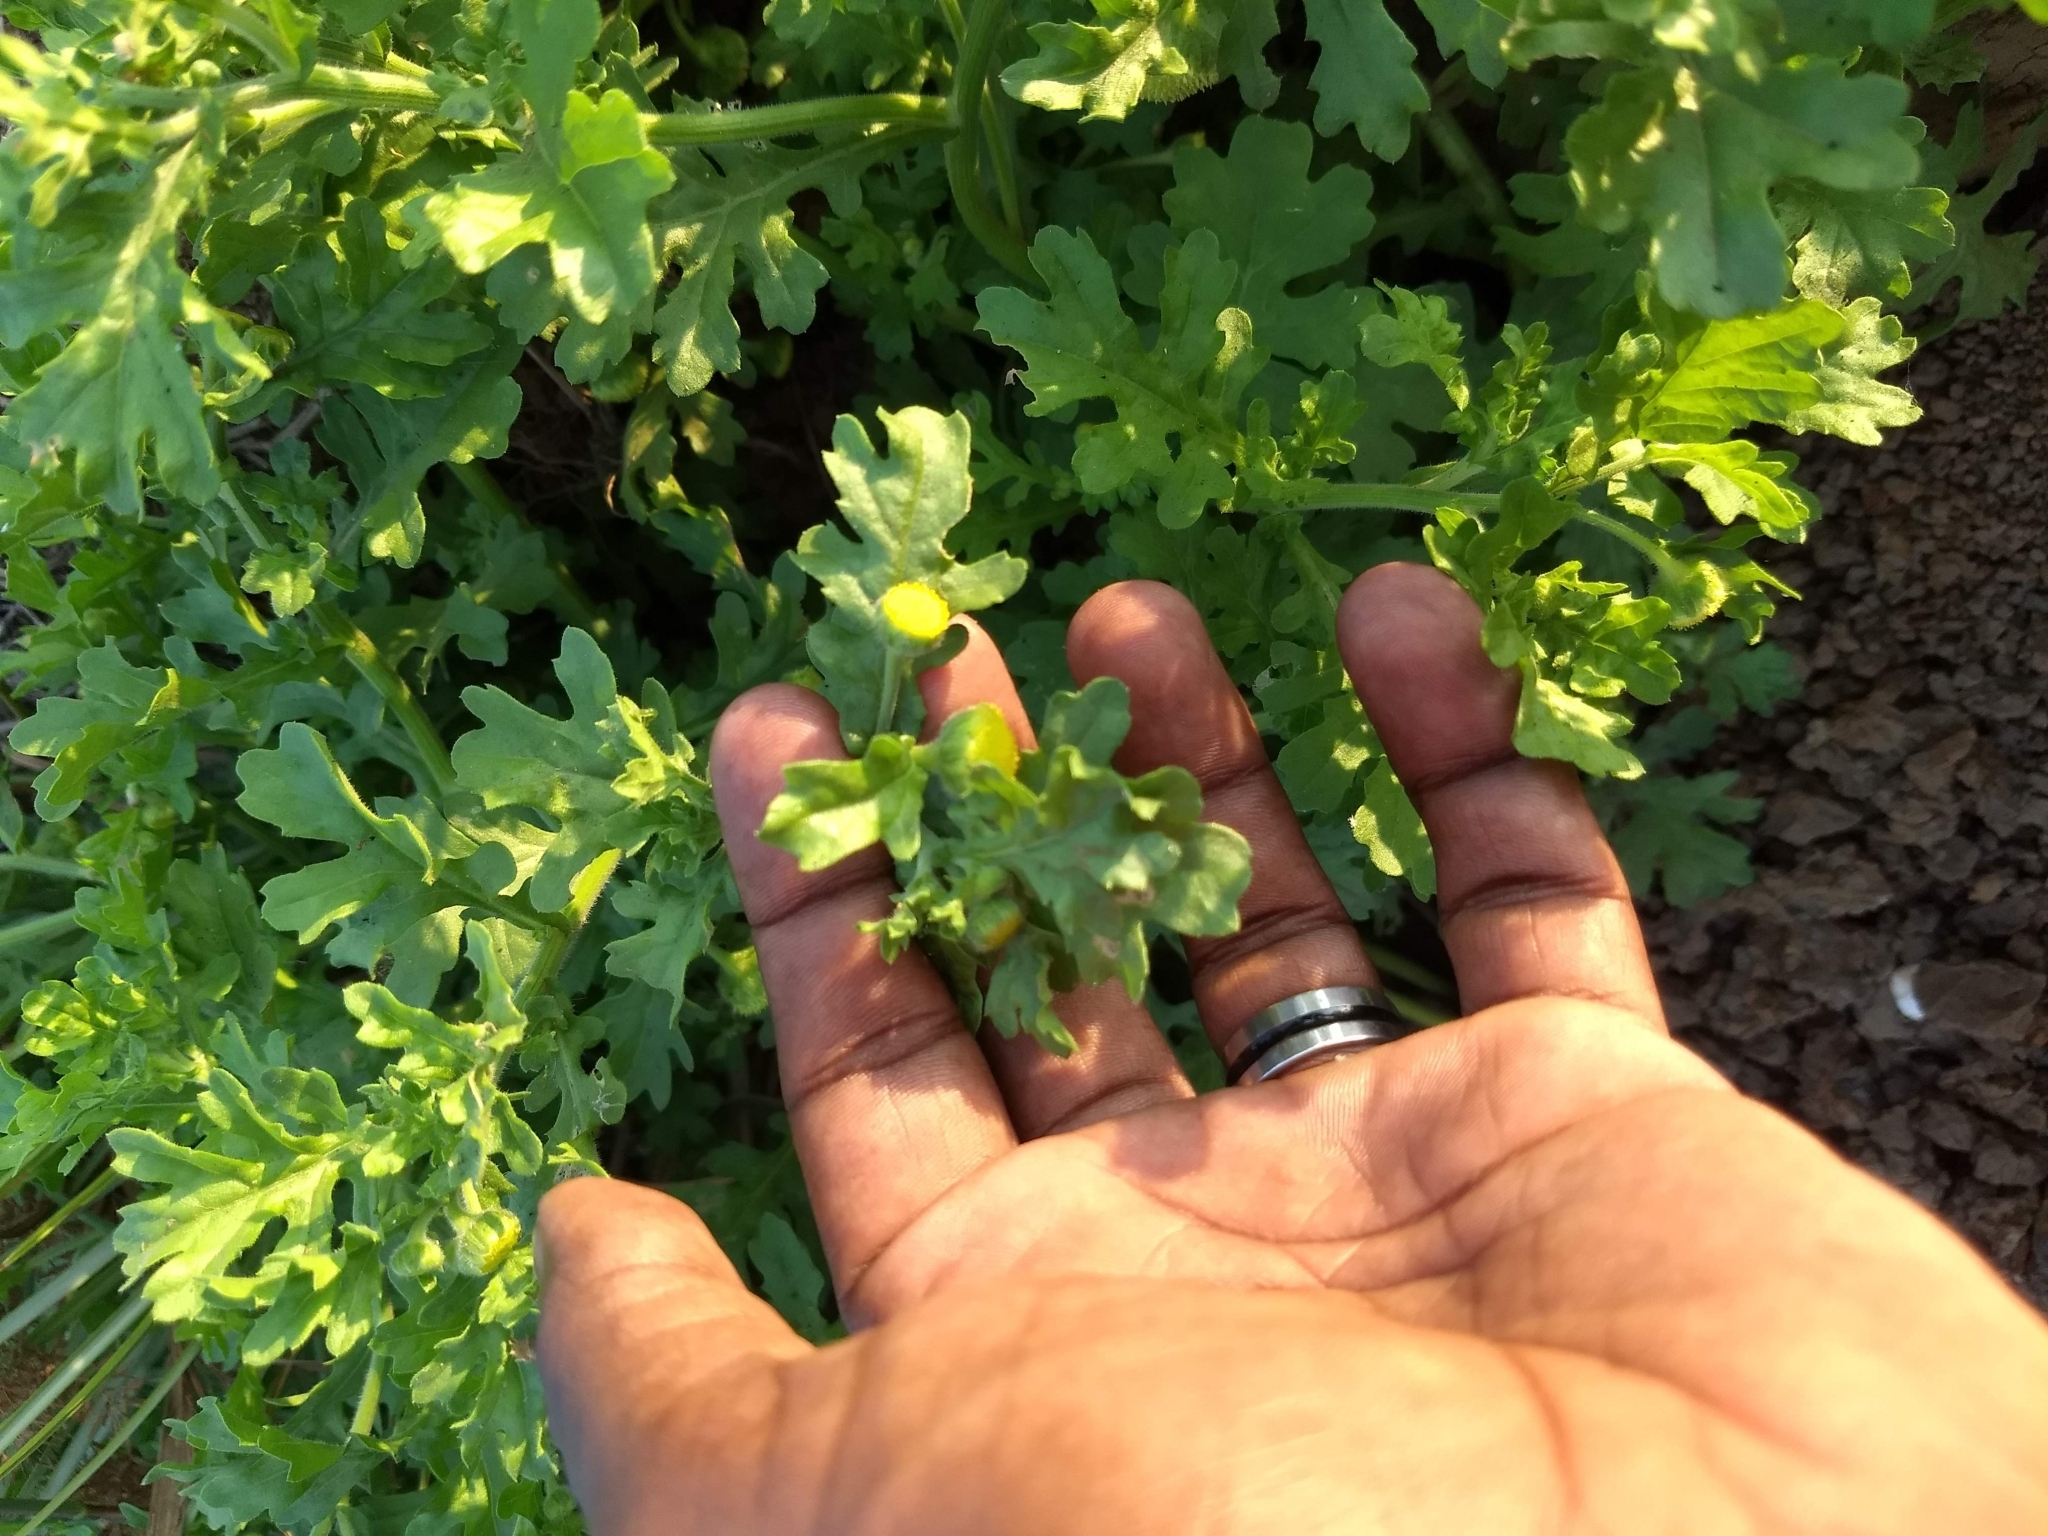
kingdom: Plantae
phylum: Tracheophyta
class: Magnoliopsida
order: Asterales
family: Asteraceae
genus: Grangea
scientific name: Grangea maderaspatana
